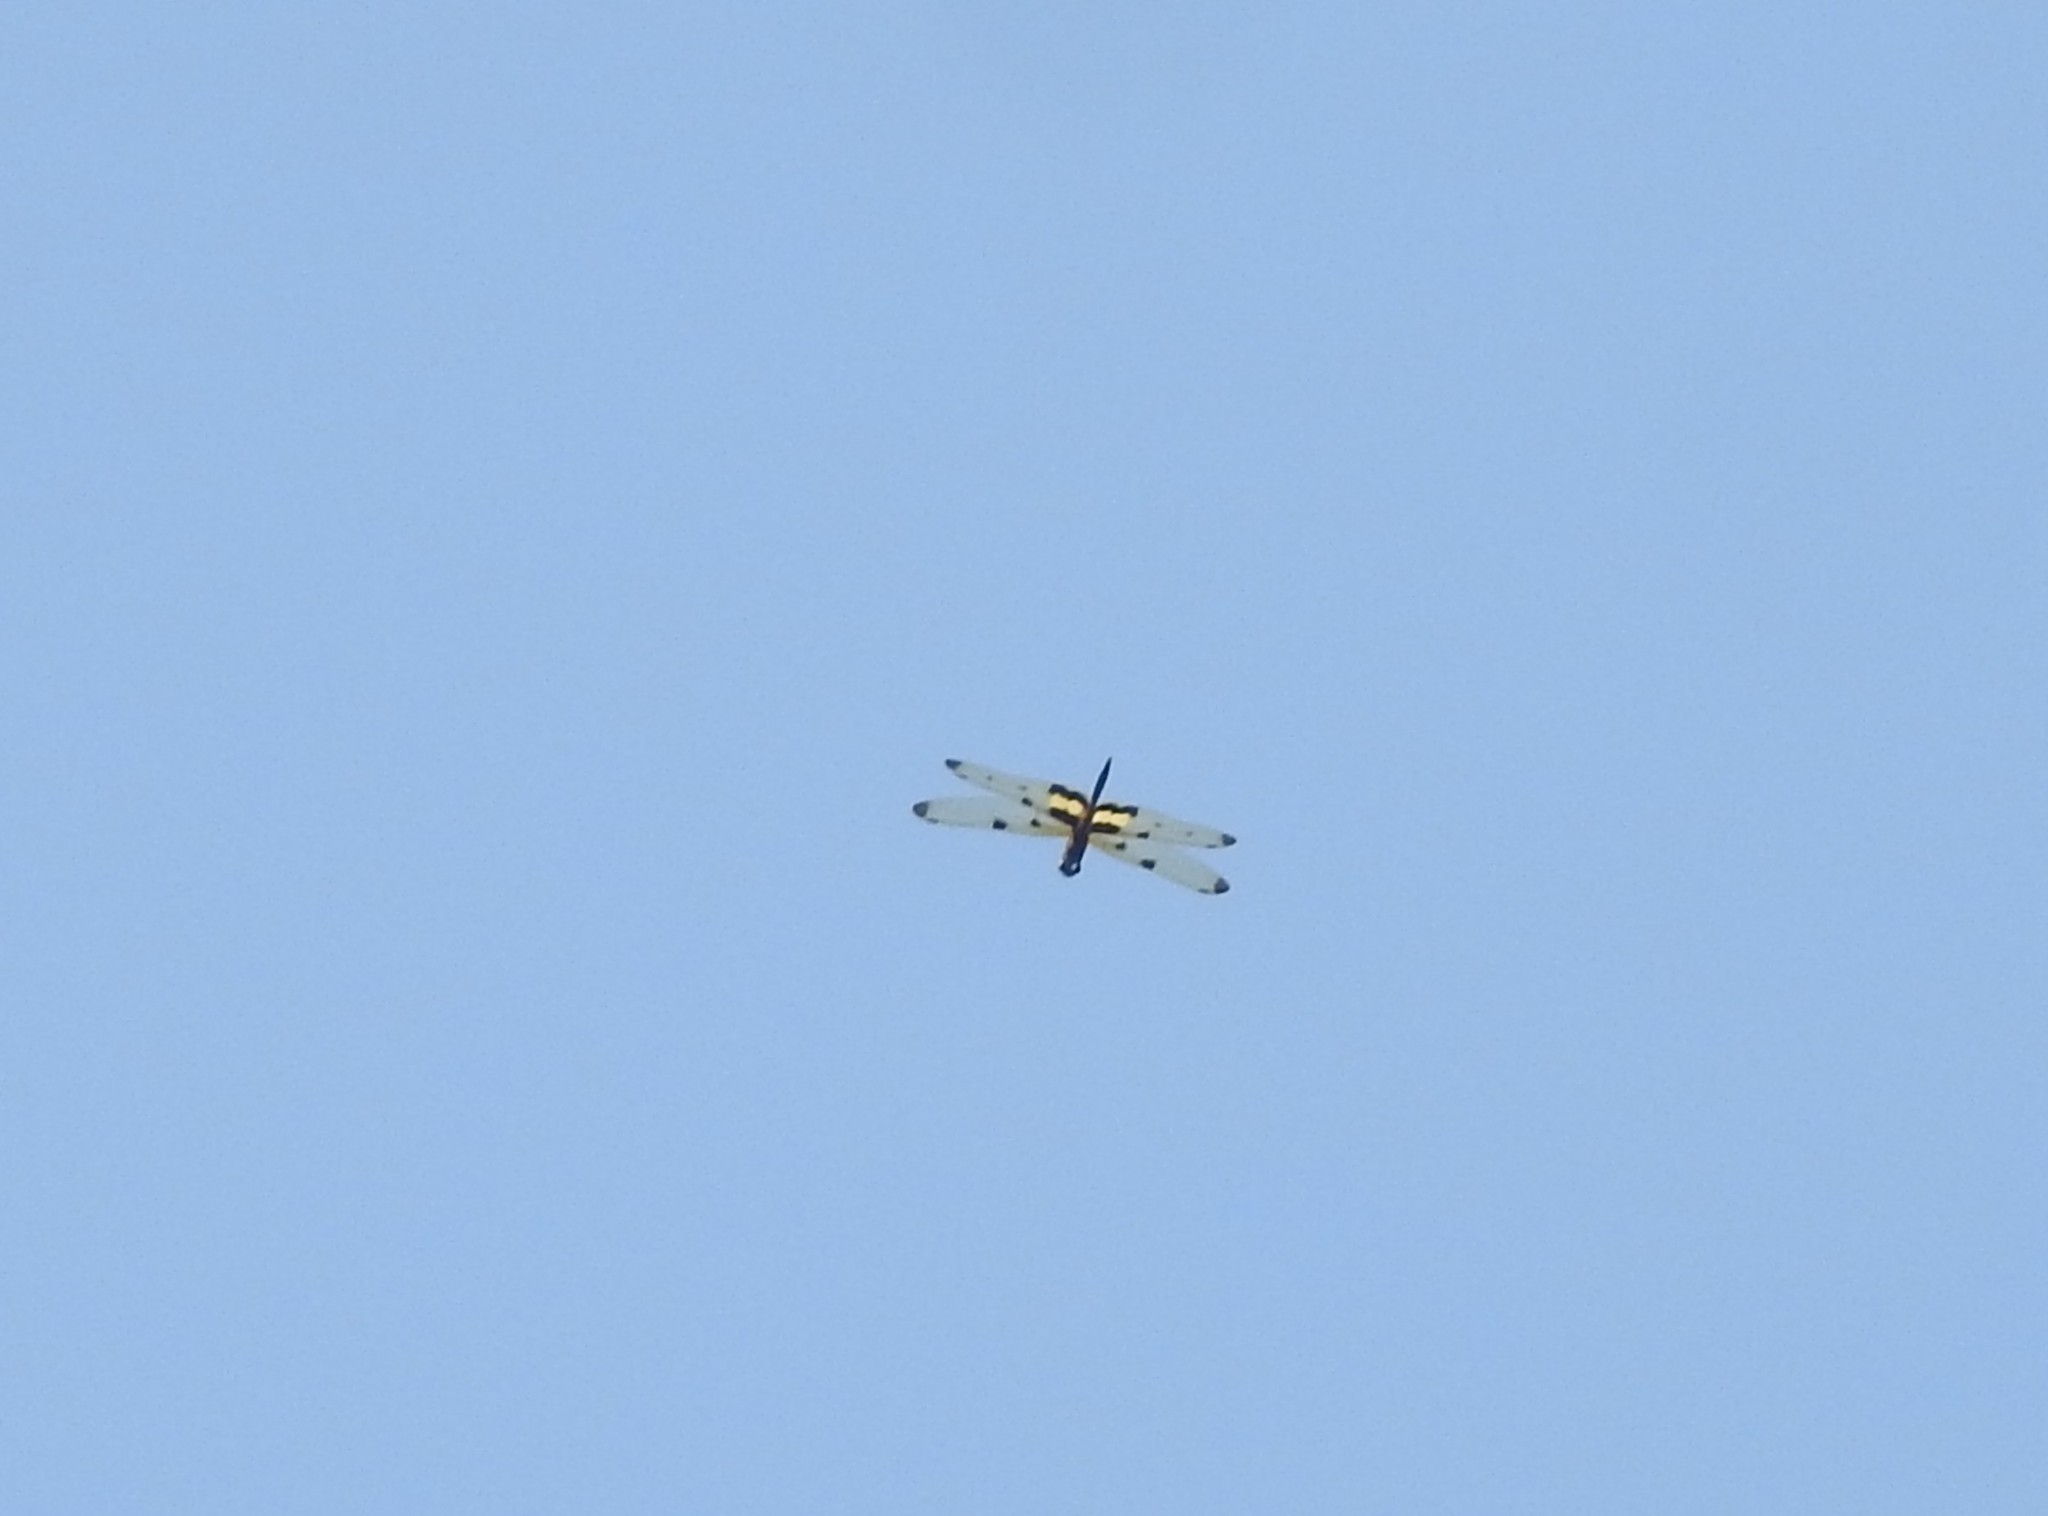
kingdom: Animalia
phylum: Arthropoda
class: Insecta
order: Odonata
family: Libellulidae
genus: Rhyothemis
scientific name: Rhyothemis variegata
